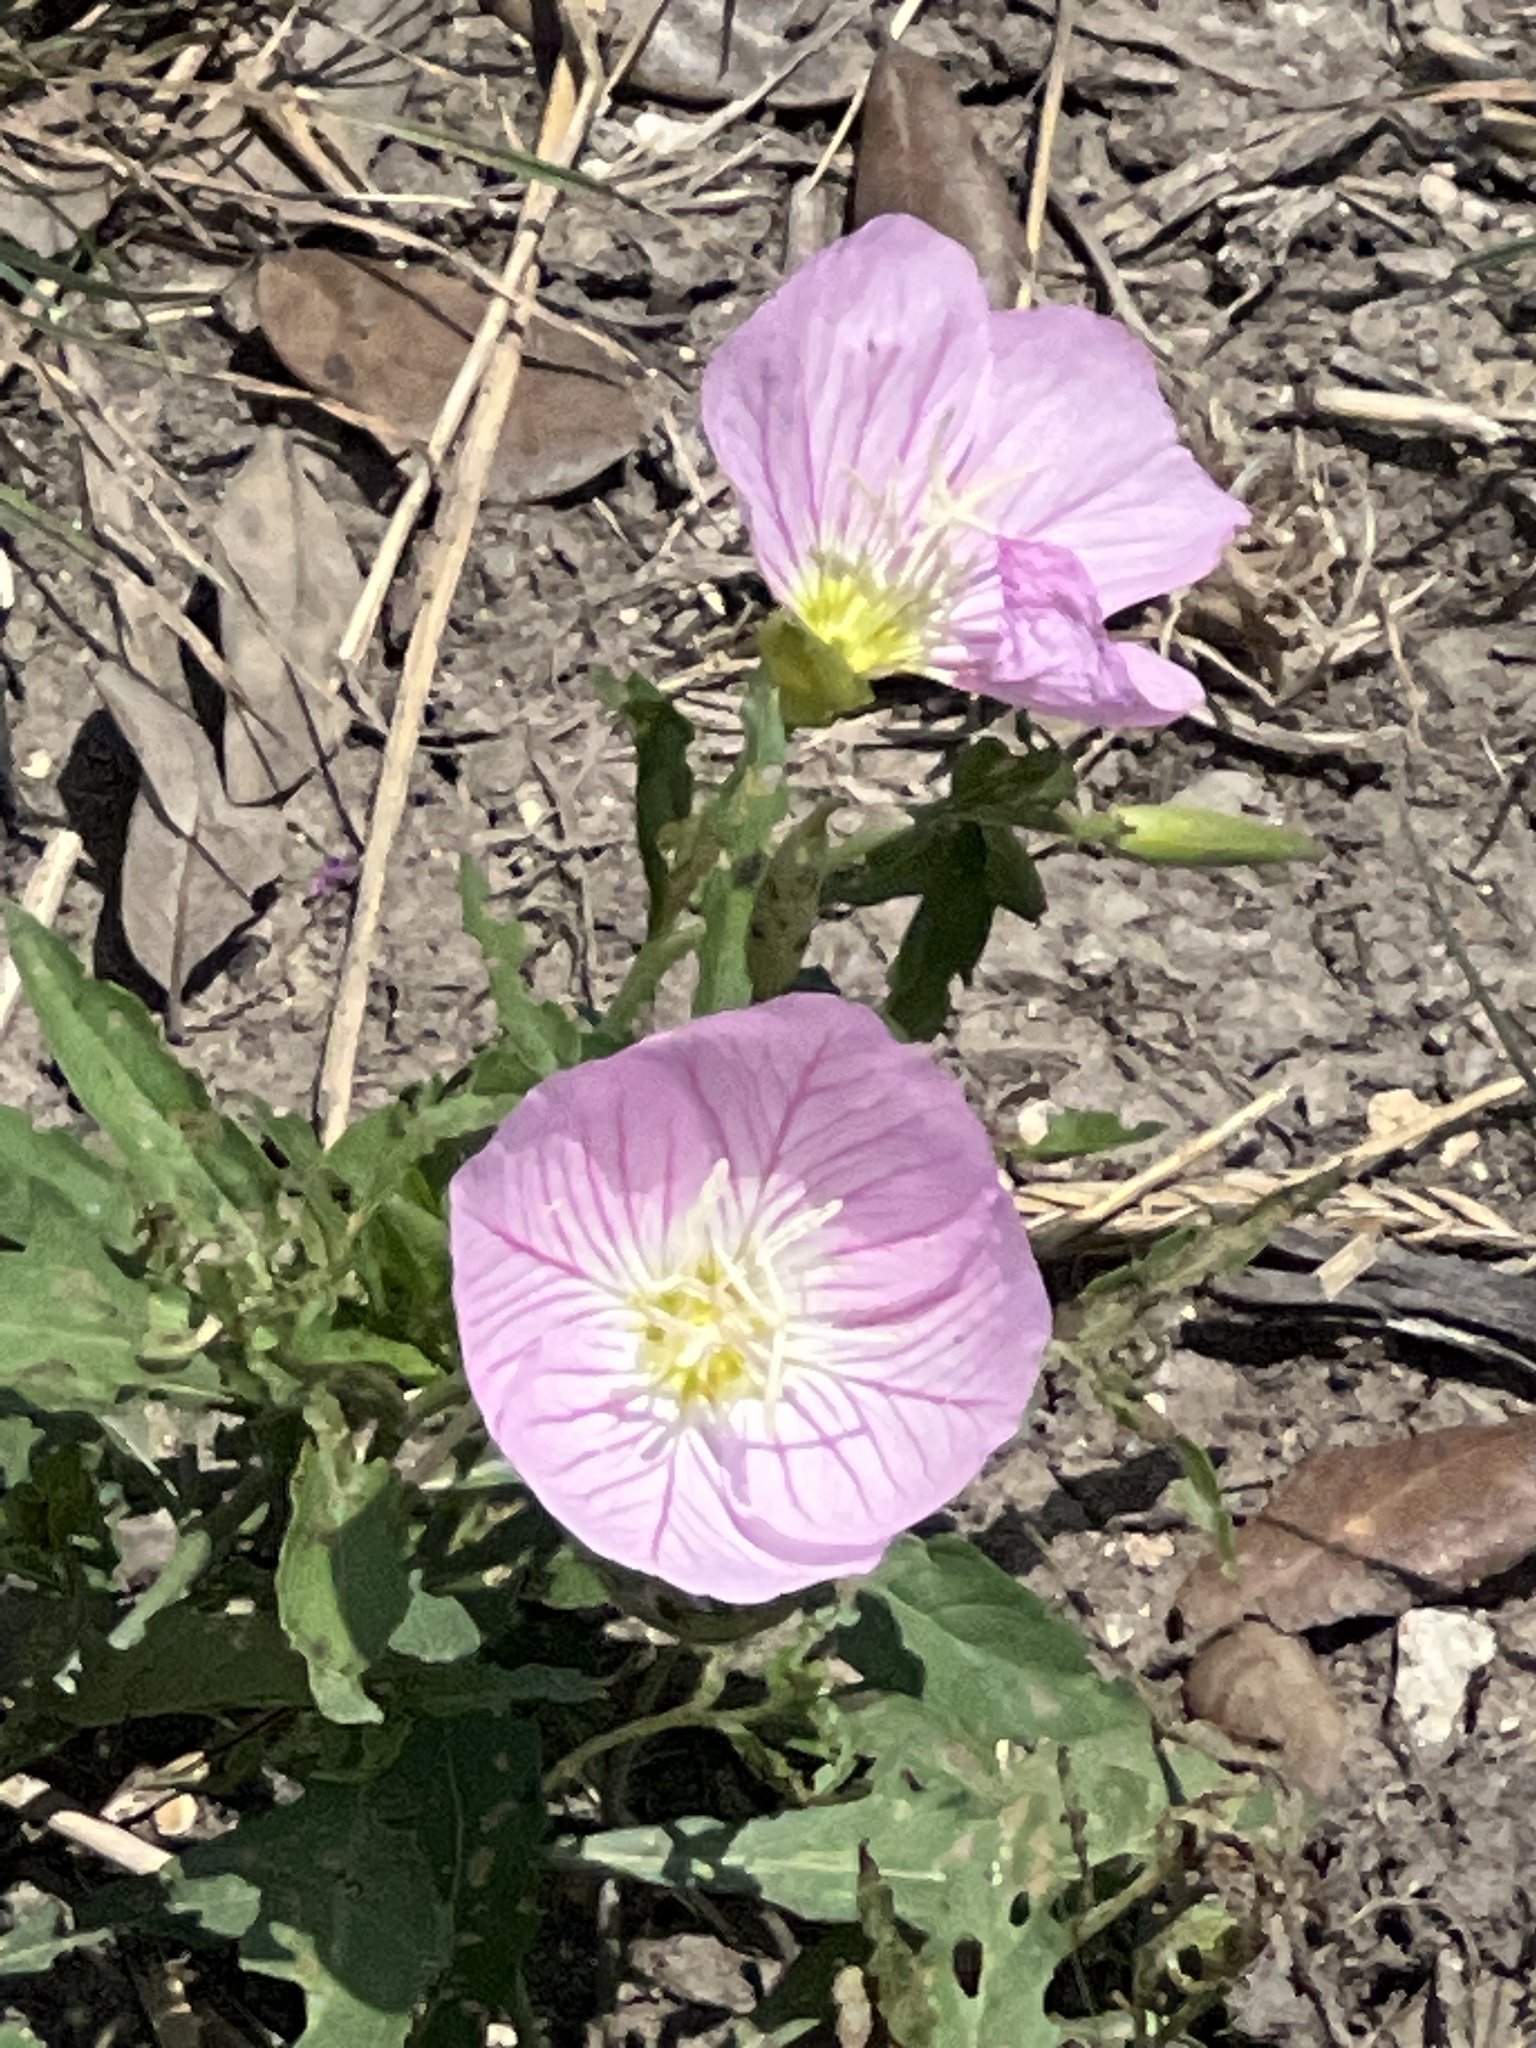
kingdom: Plantae
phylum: Tracheophyta
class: Magnoliopsida
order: Myrtales
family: Onagraceae
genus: Oenothera
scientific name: Oenothera speciosa
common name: White evening-primrose
